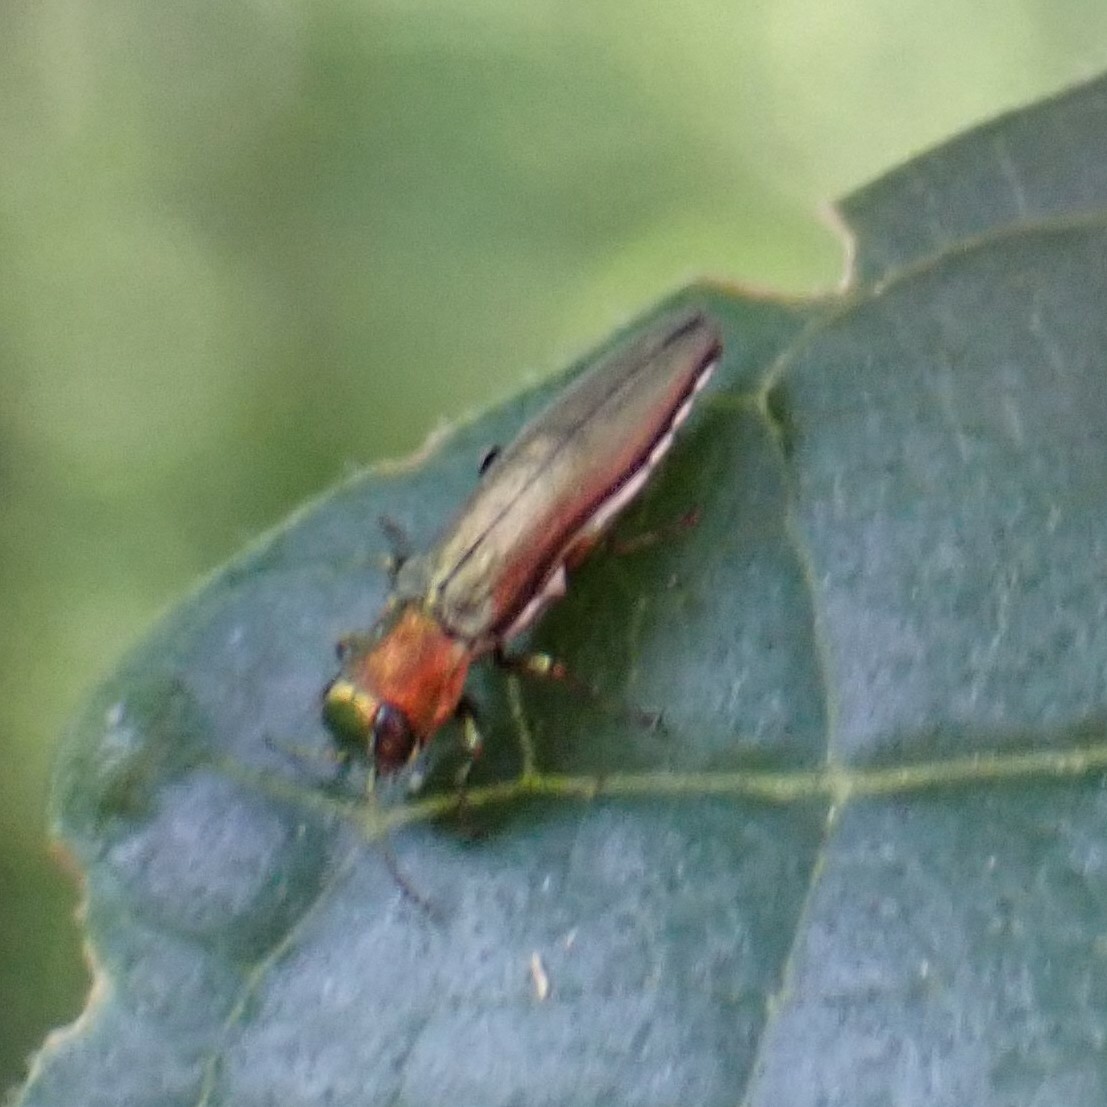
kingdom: Animalia
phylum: Arthropoda
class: Insecta
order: Coleoptera
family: Buprestidae
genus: Agrilus
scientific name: Agrilus smaragdifrons
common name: East asian buprestid
